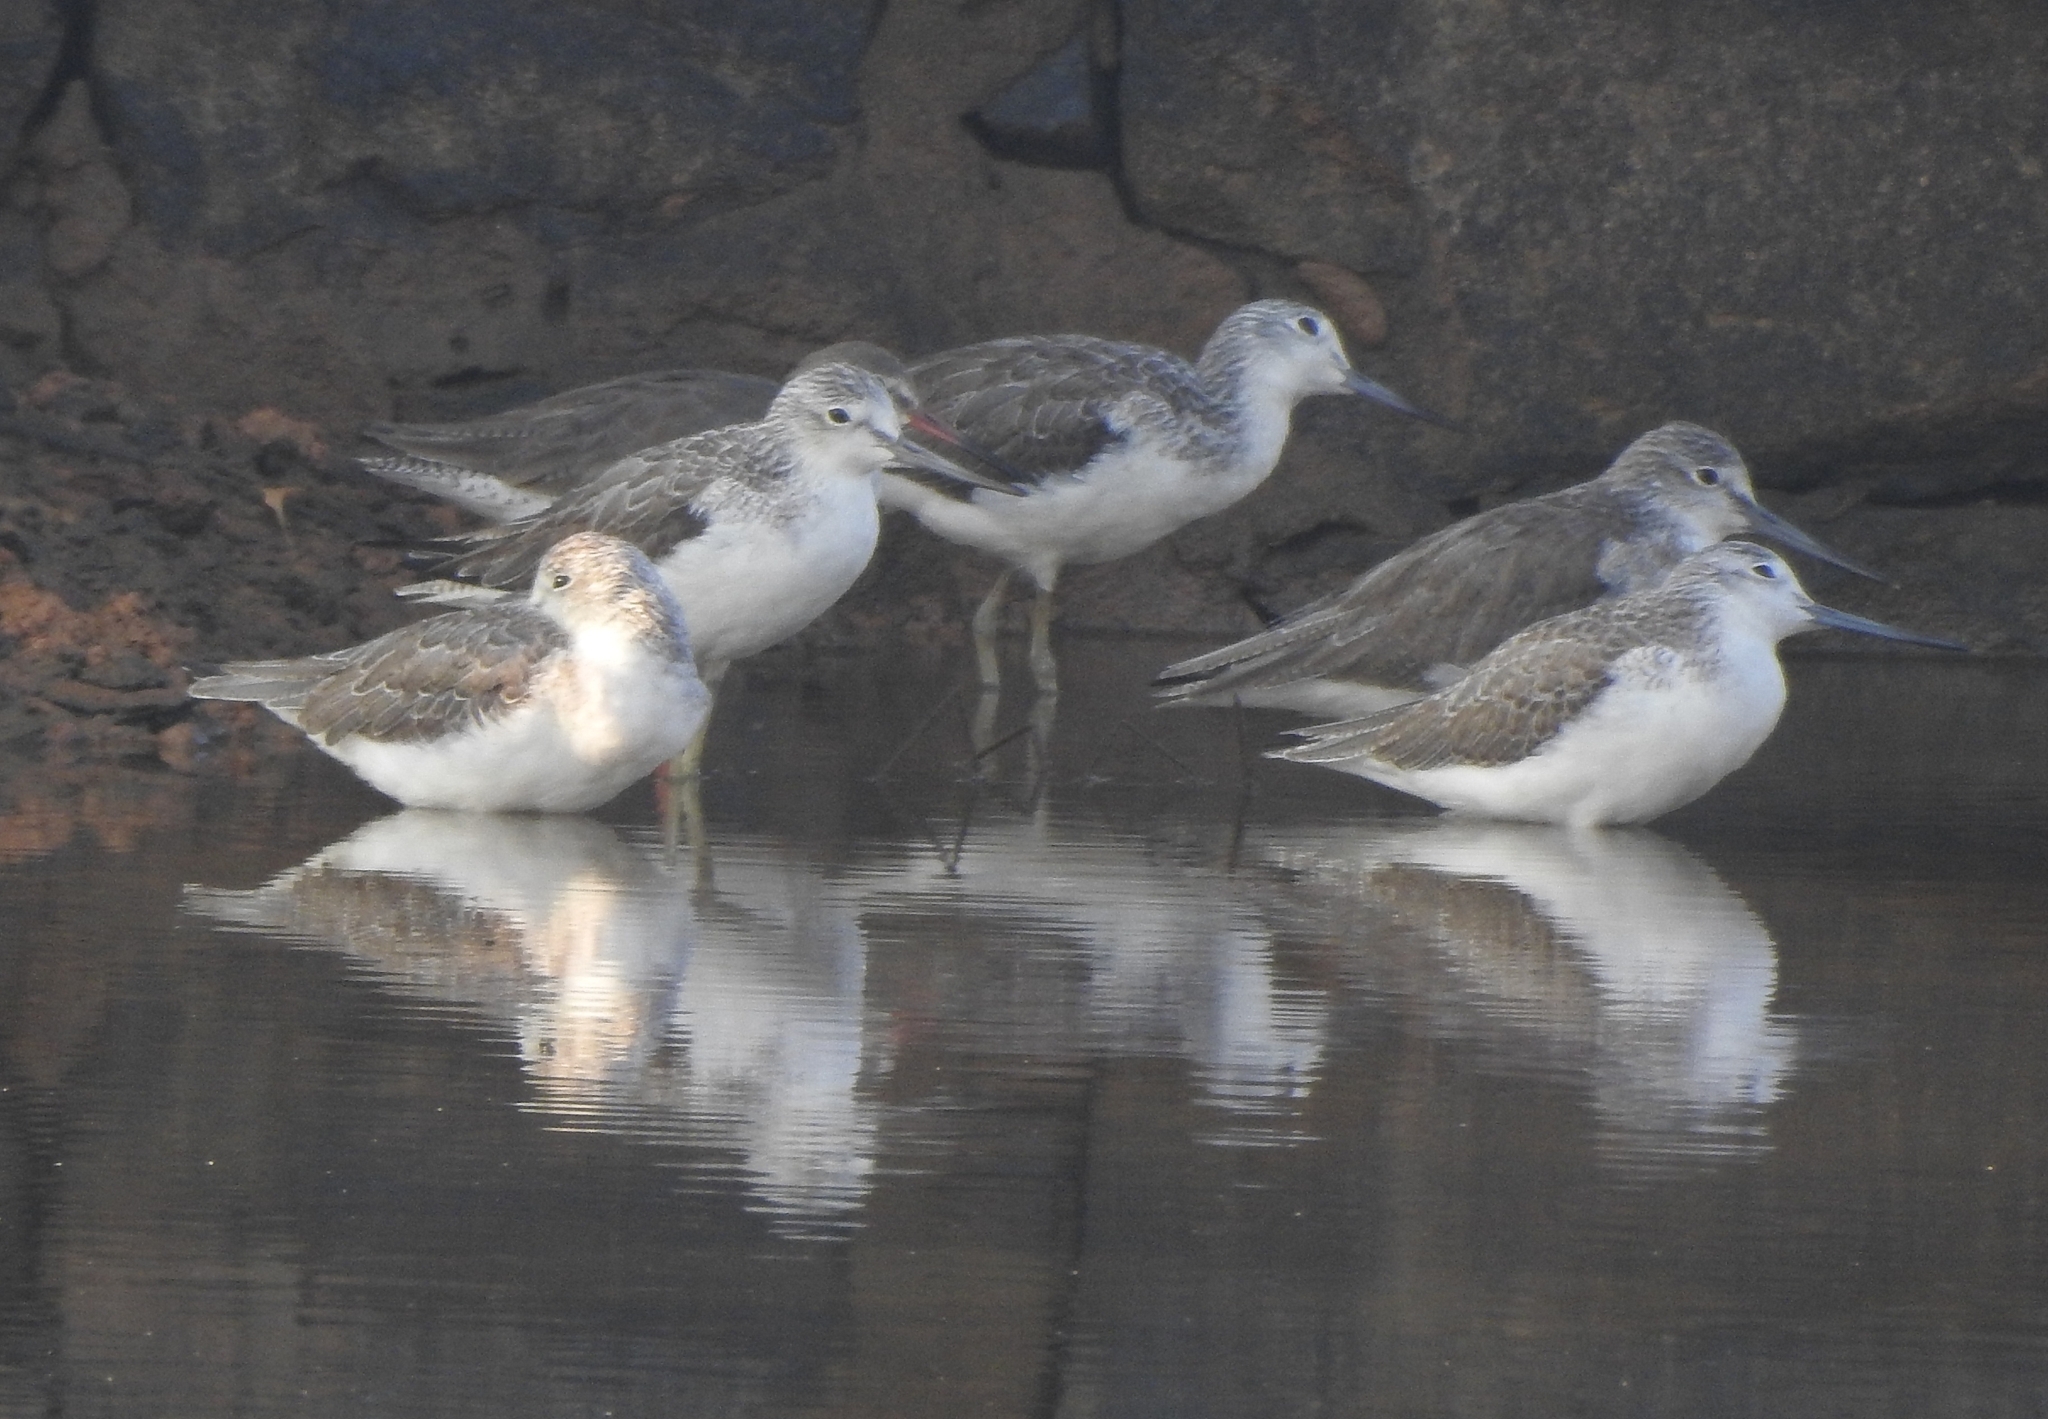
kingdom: Animalia
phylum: Chordata
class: Aves
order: Charadriiformes
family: Scolopacidae
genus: Tringa
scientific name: Tringa nebularia
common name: Common greenshank
